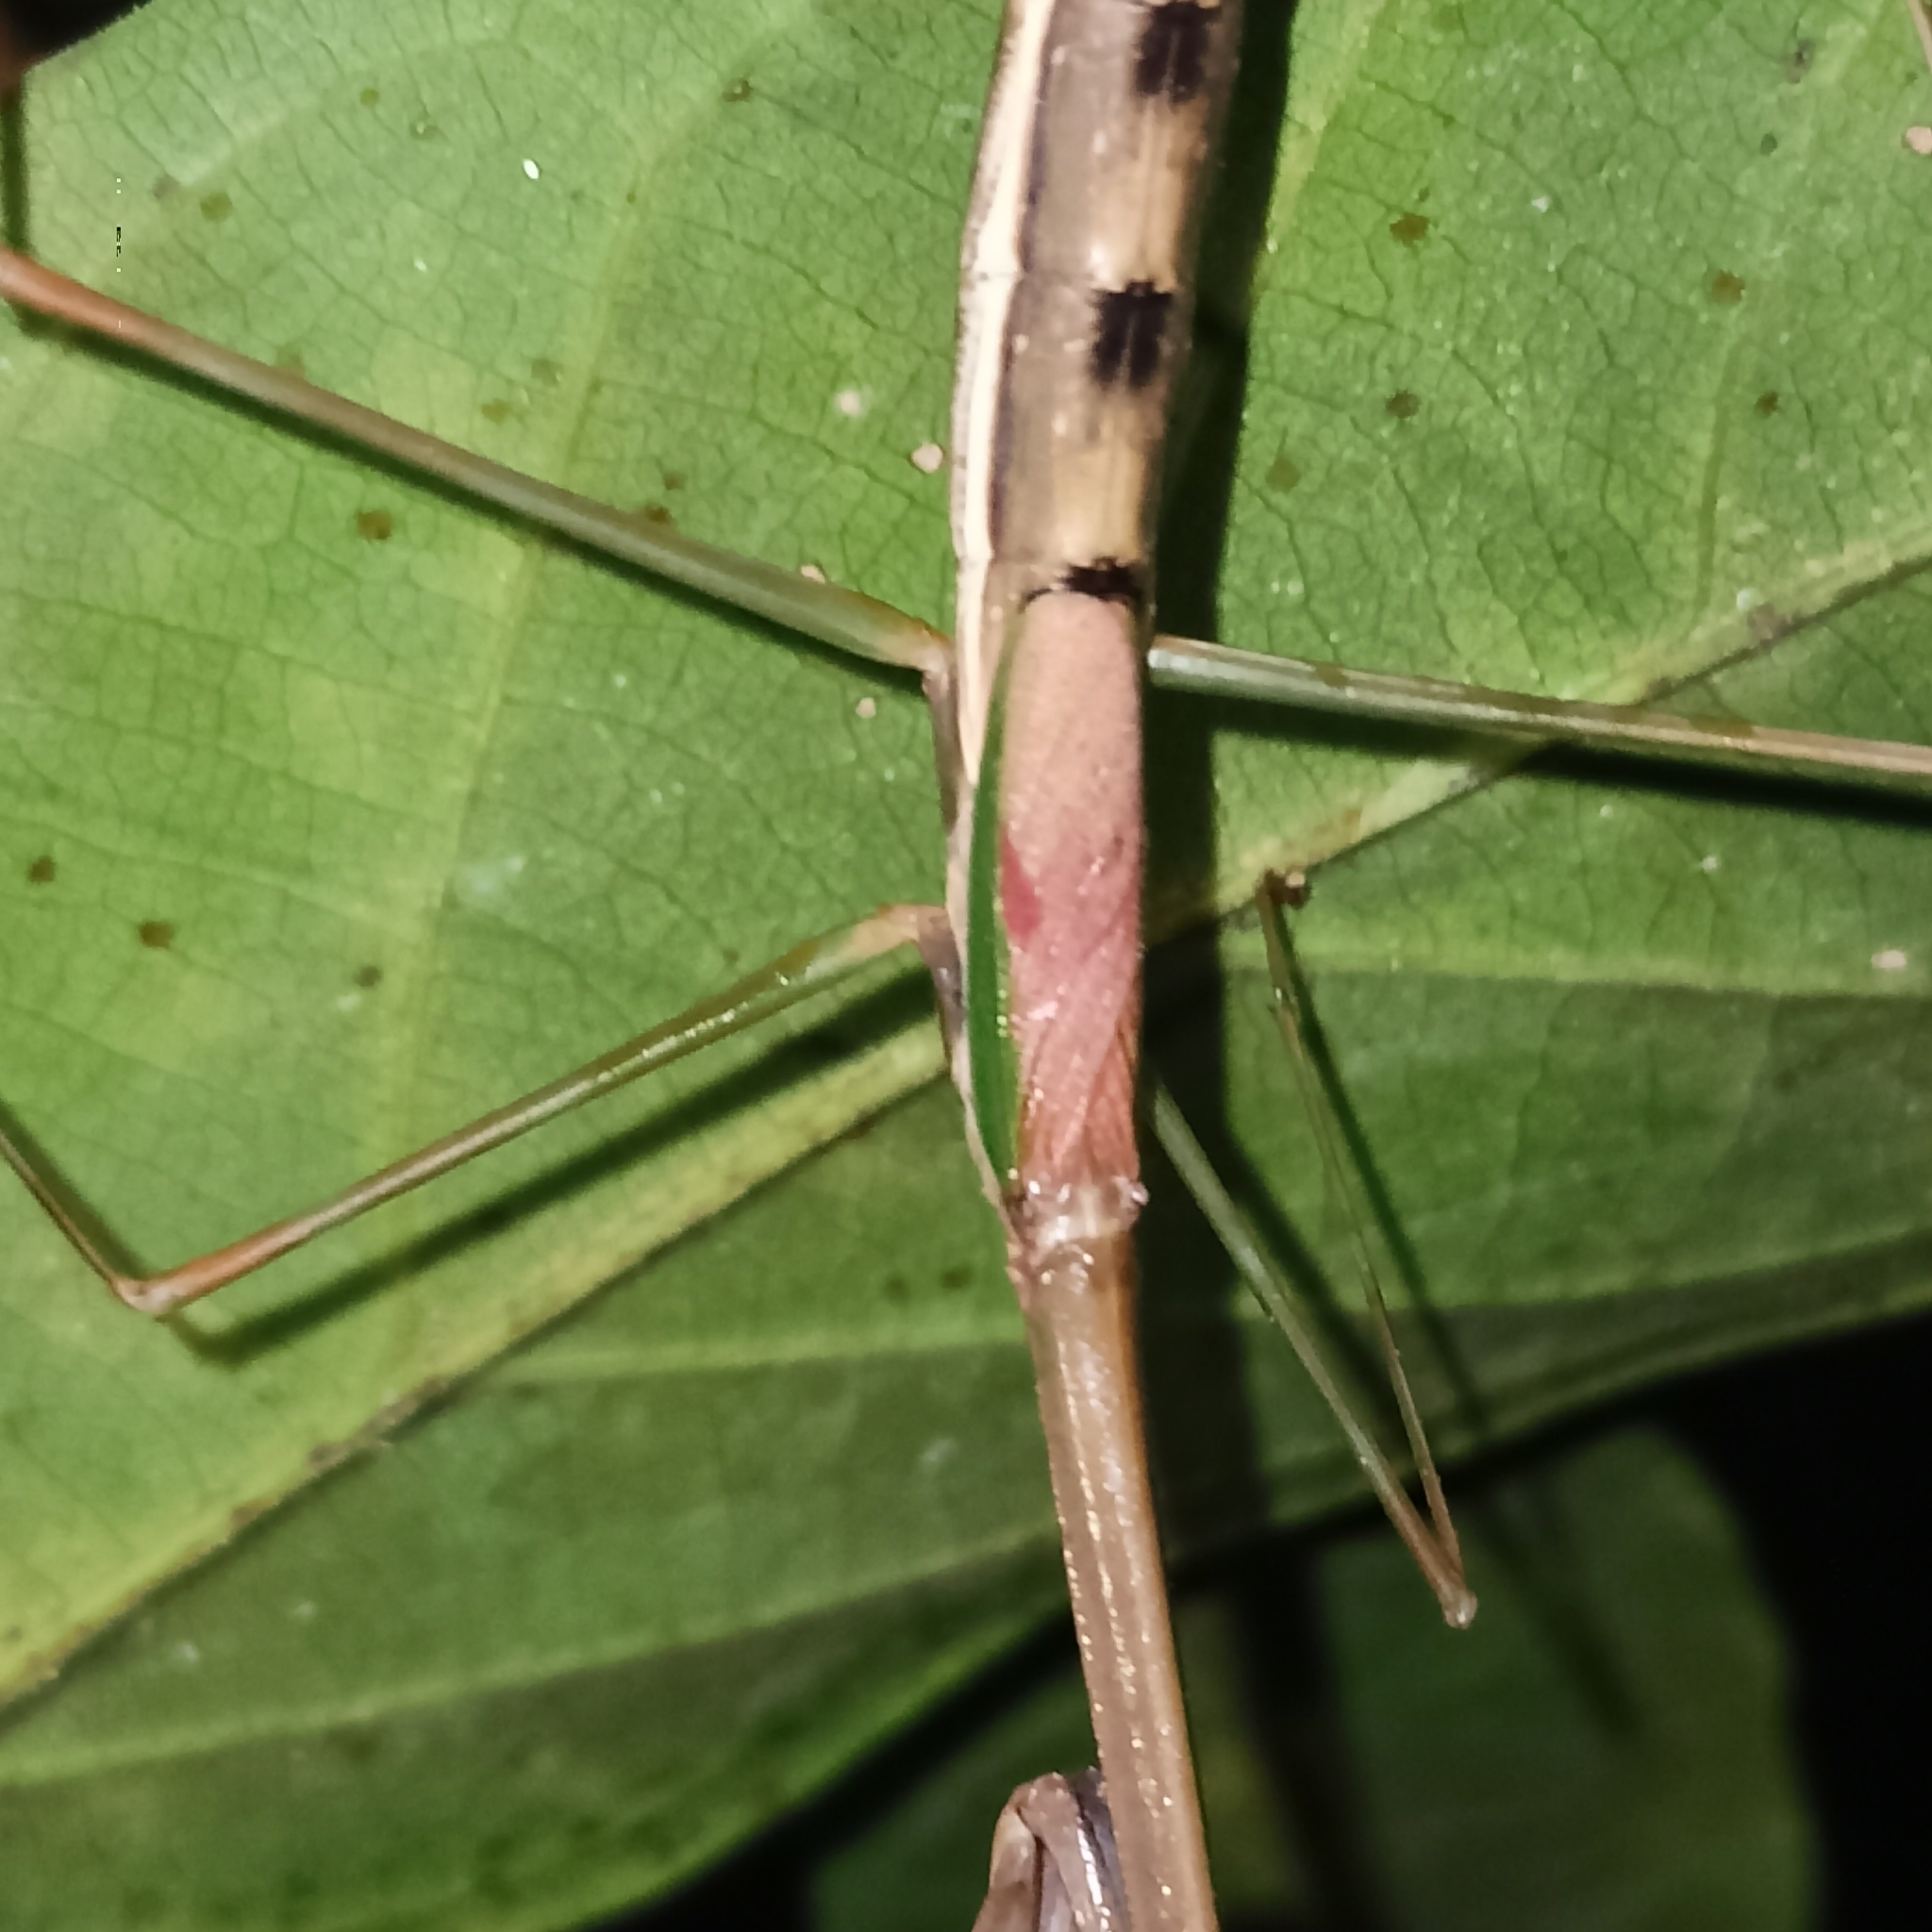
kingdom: Animalia
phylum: Arthropoda
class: Insecta
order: Mantodea
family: Deroplatyidae
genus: Indomenella
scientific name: Indomenella indica
